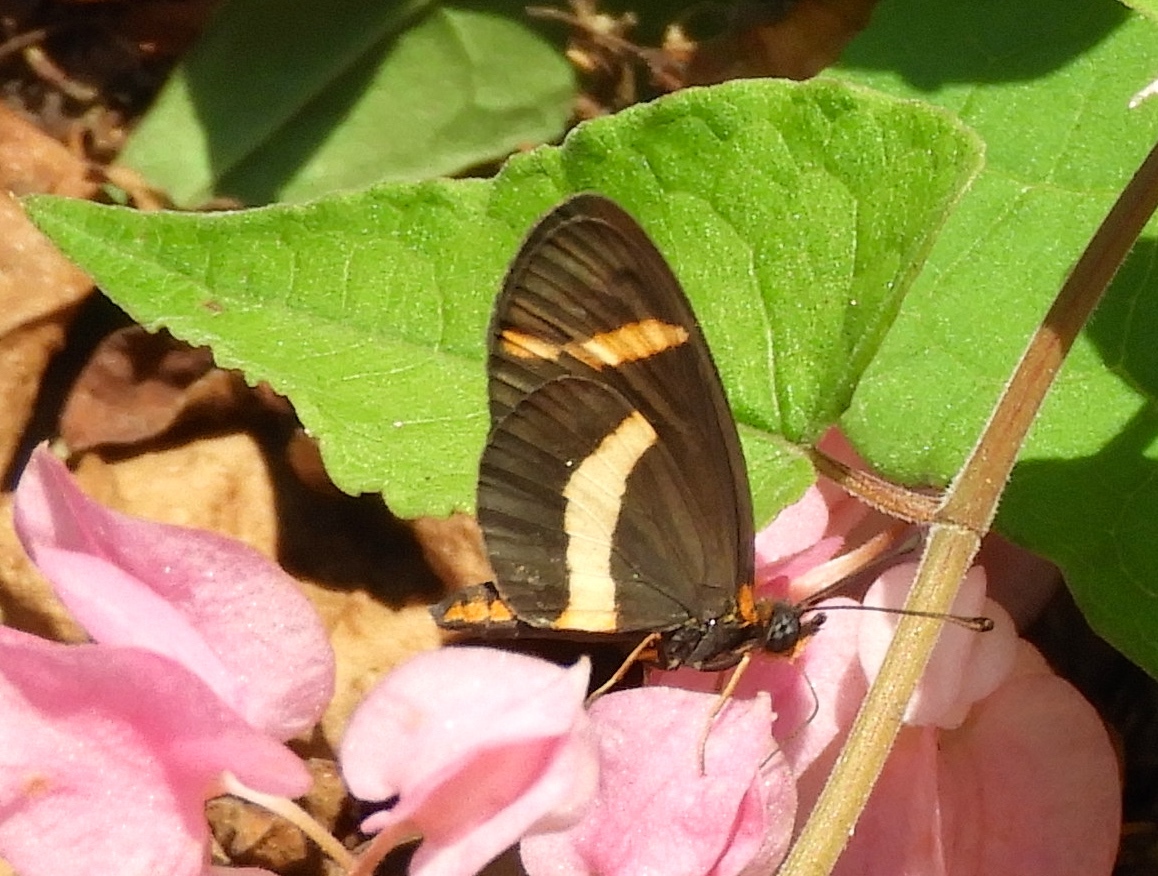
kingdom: Animalia
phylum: Arthropoda
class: Insecta
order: Lepidoptera
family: Nymphalidae
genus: Microtia
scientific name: Microtia elva
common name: Elf
